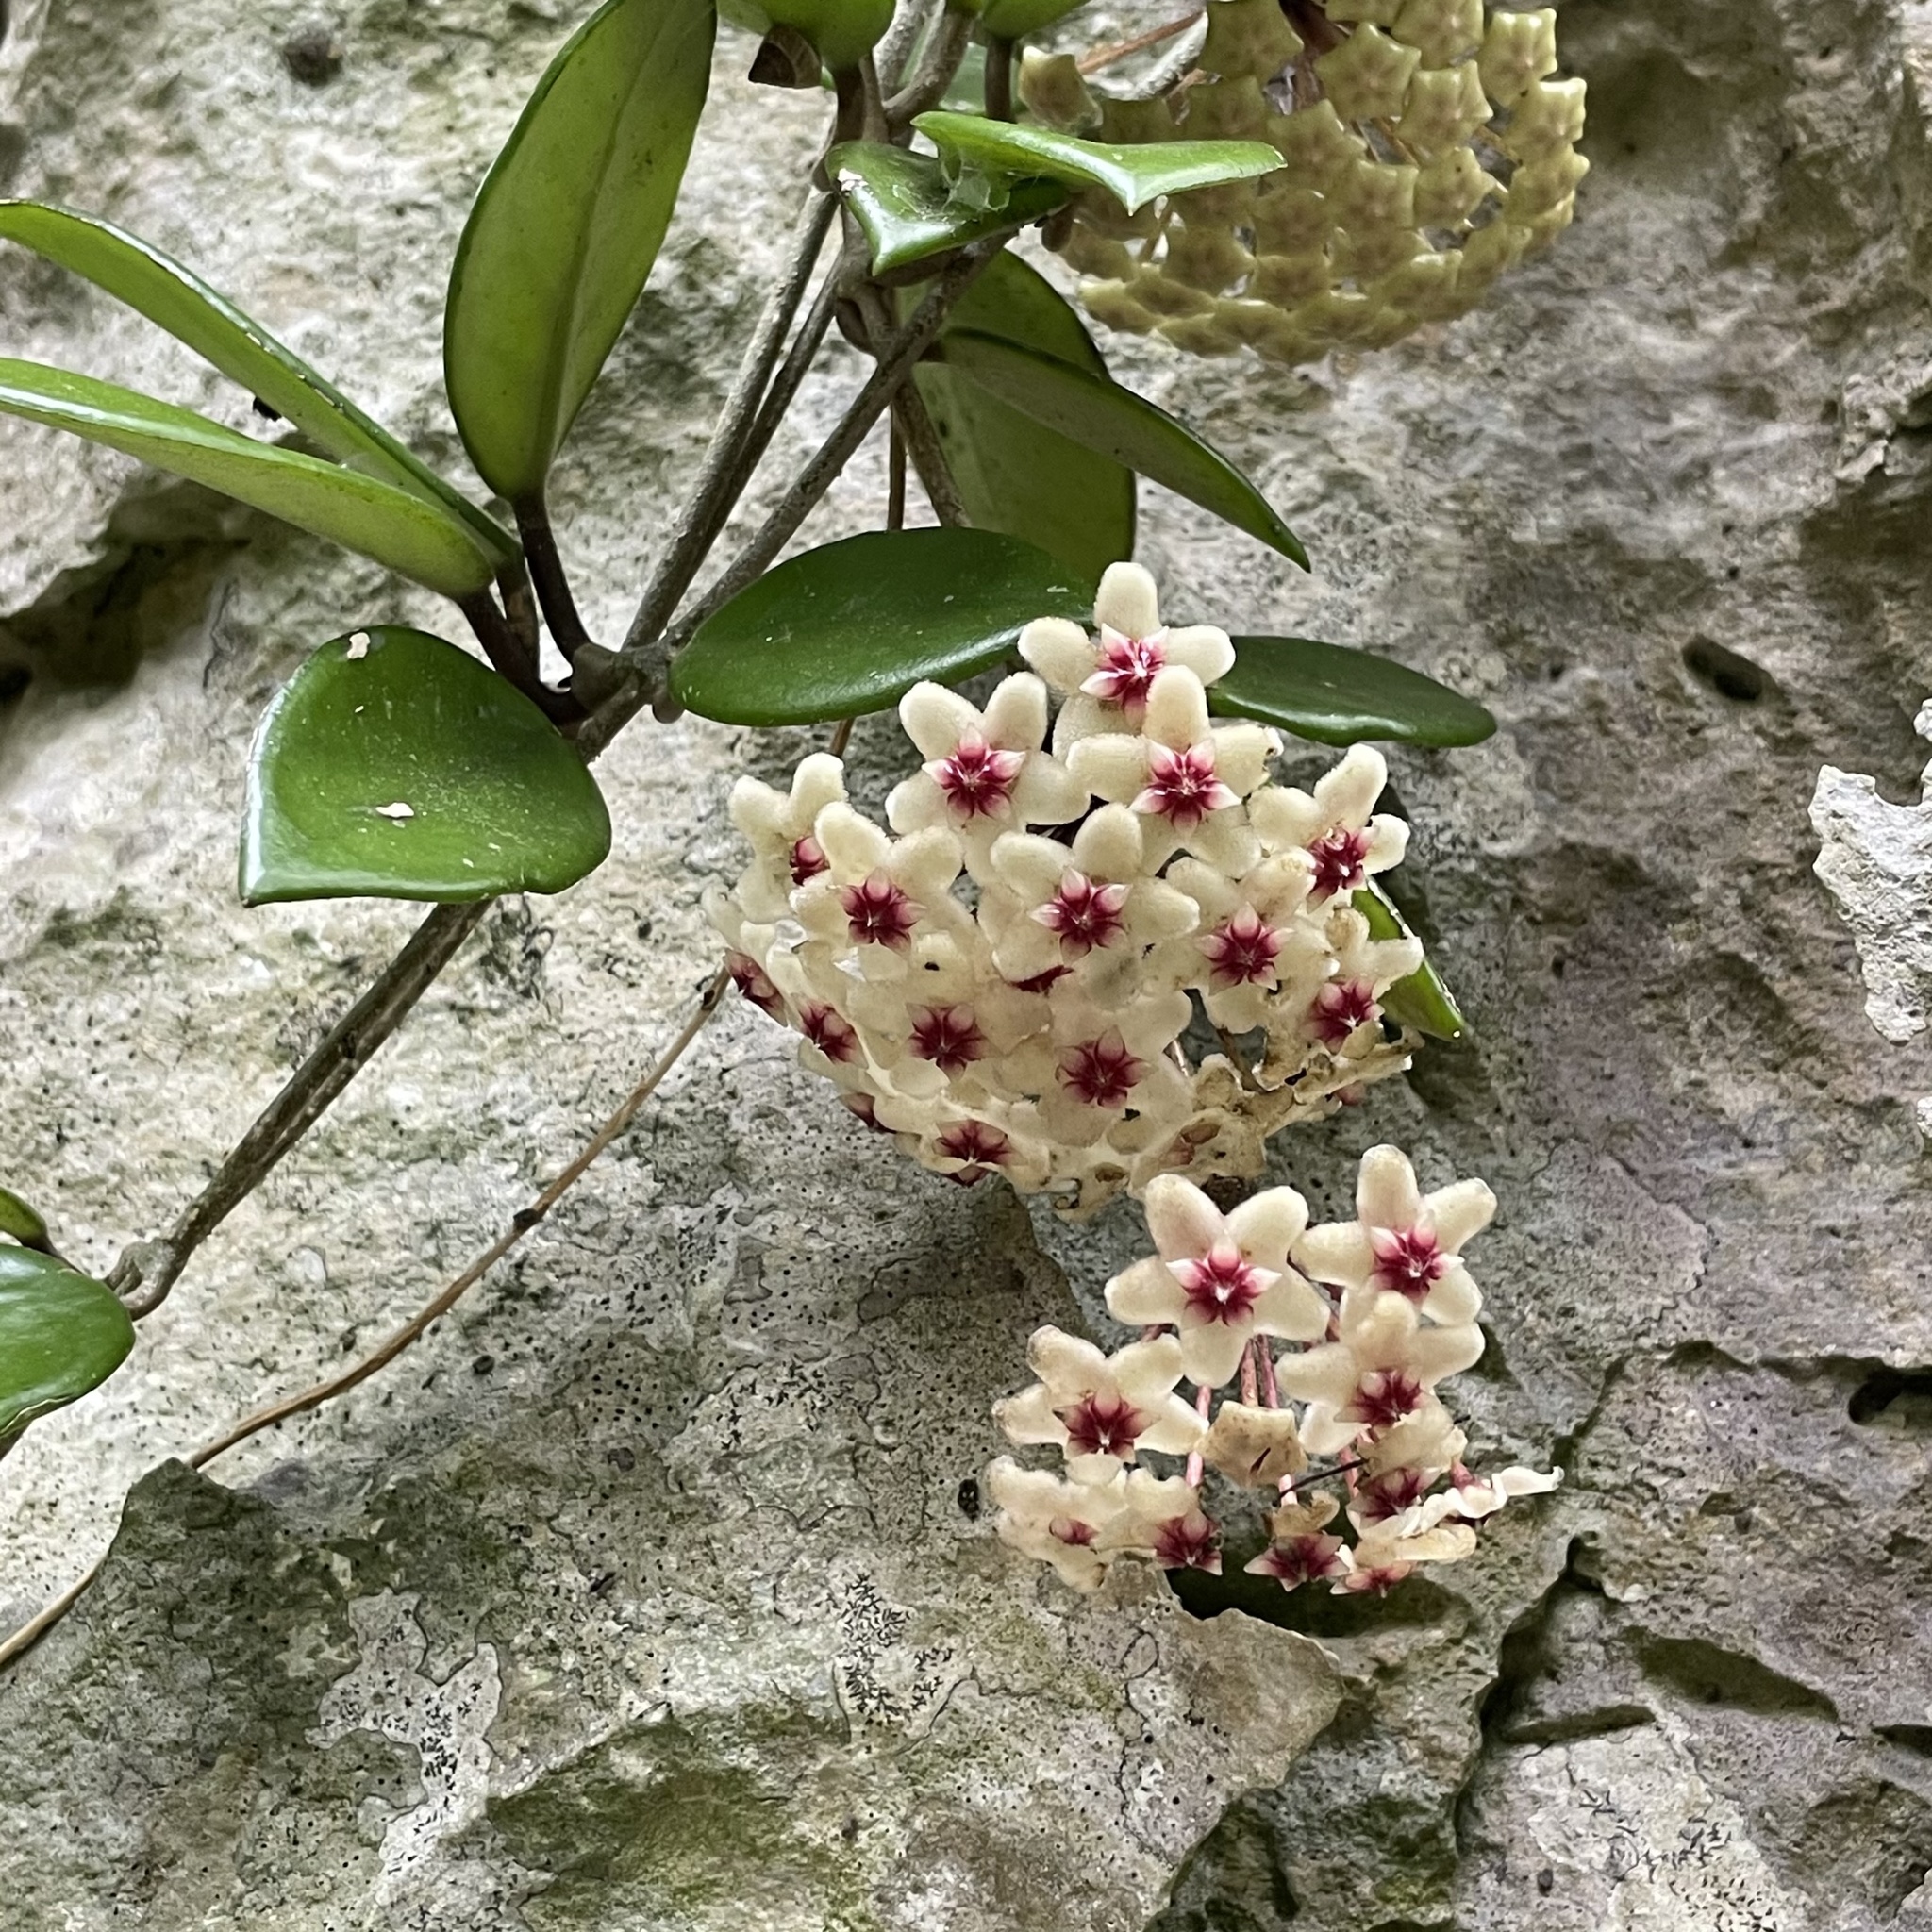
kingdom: Plantae
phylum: Tracheophyta
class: Magnoliopsida
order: Gentianales
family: Apocynaceae
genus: Hoya
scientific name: Hoya carnosa
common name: Honeyplant
